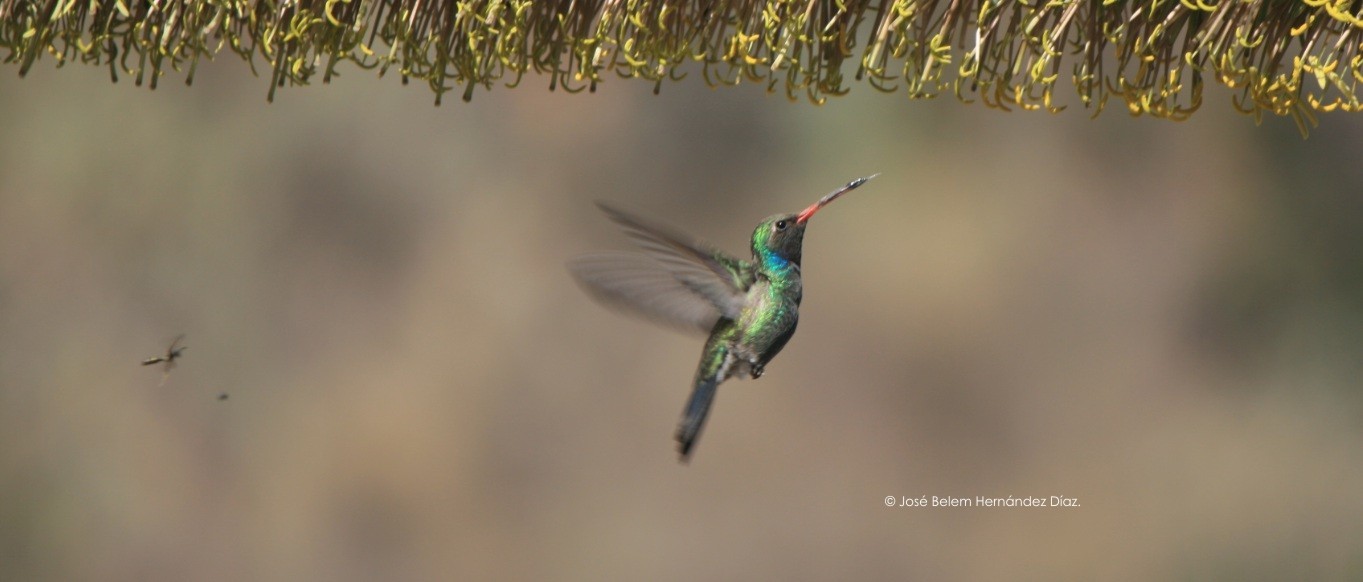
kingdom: Animalia
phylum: Chordata
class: Aves
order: Apodiformes
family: Trochilidae
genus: Cynanthus
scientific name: Cynanthus latirostris
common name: Broad-billed hummingbird
